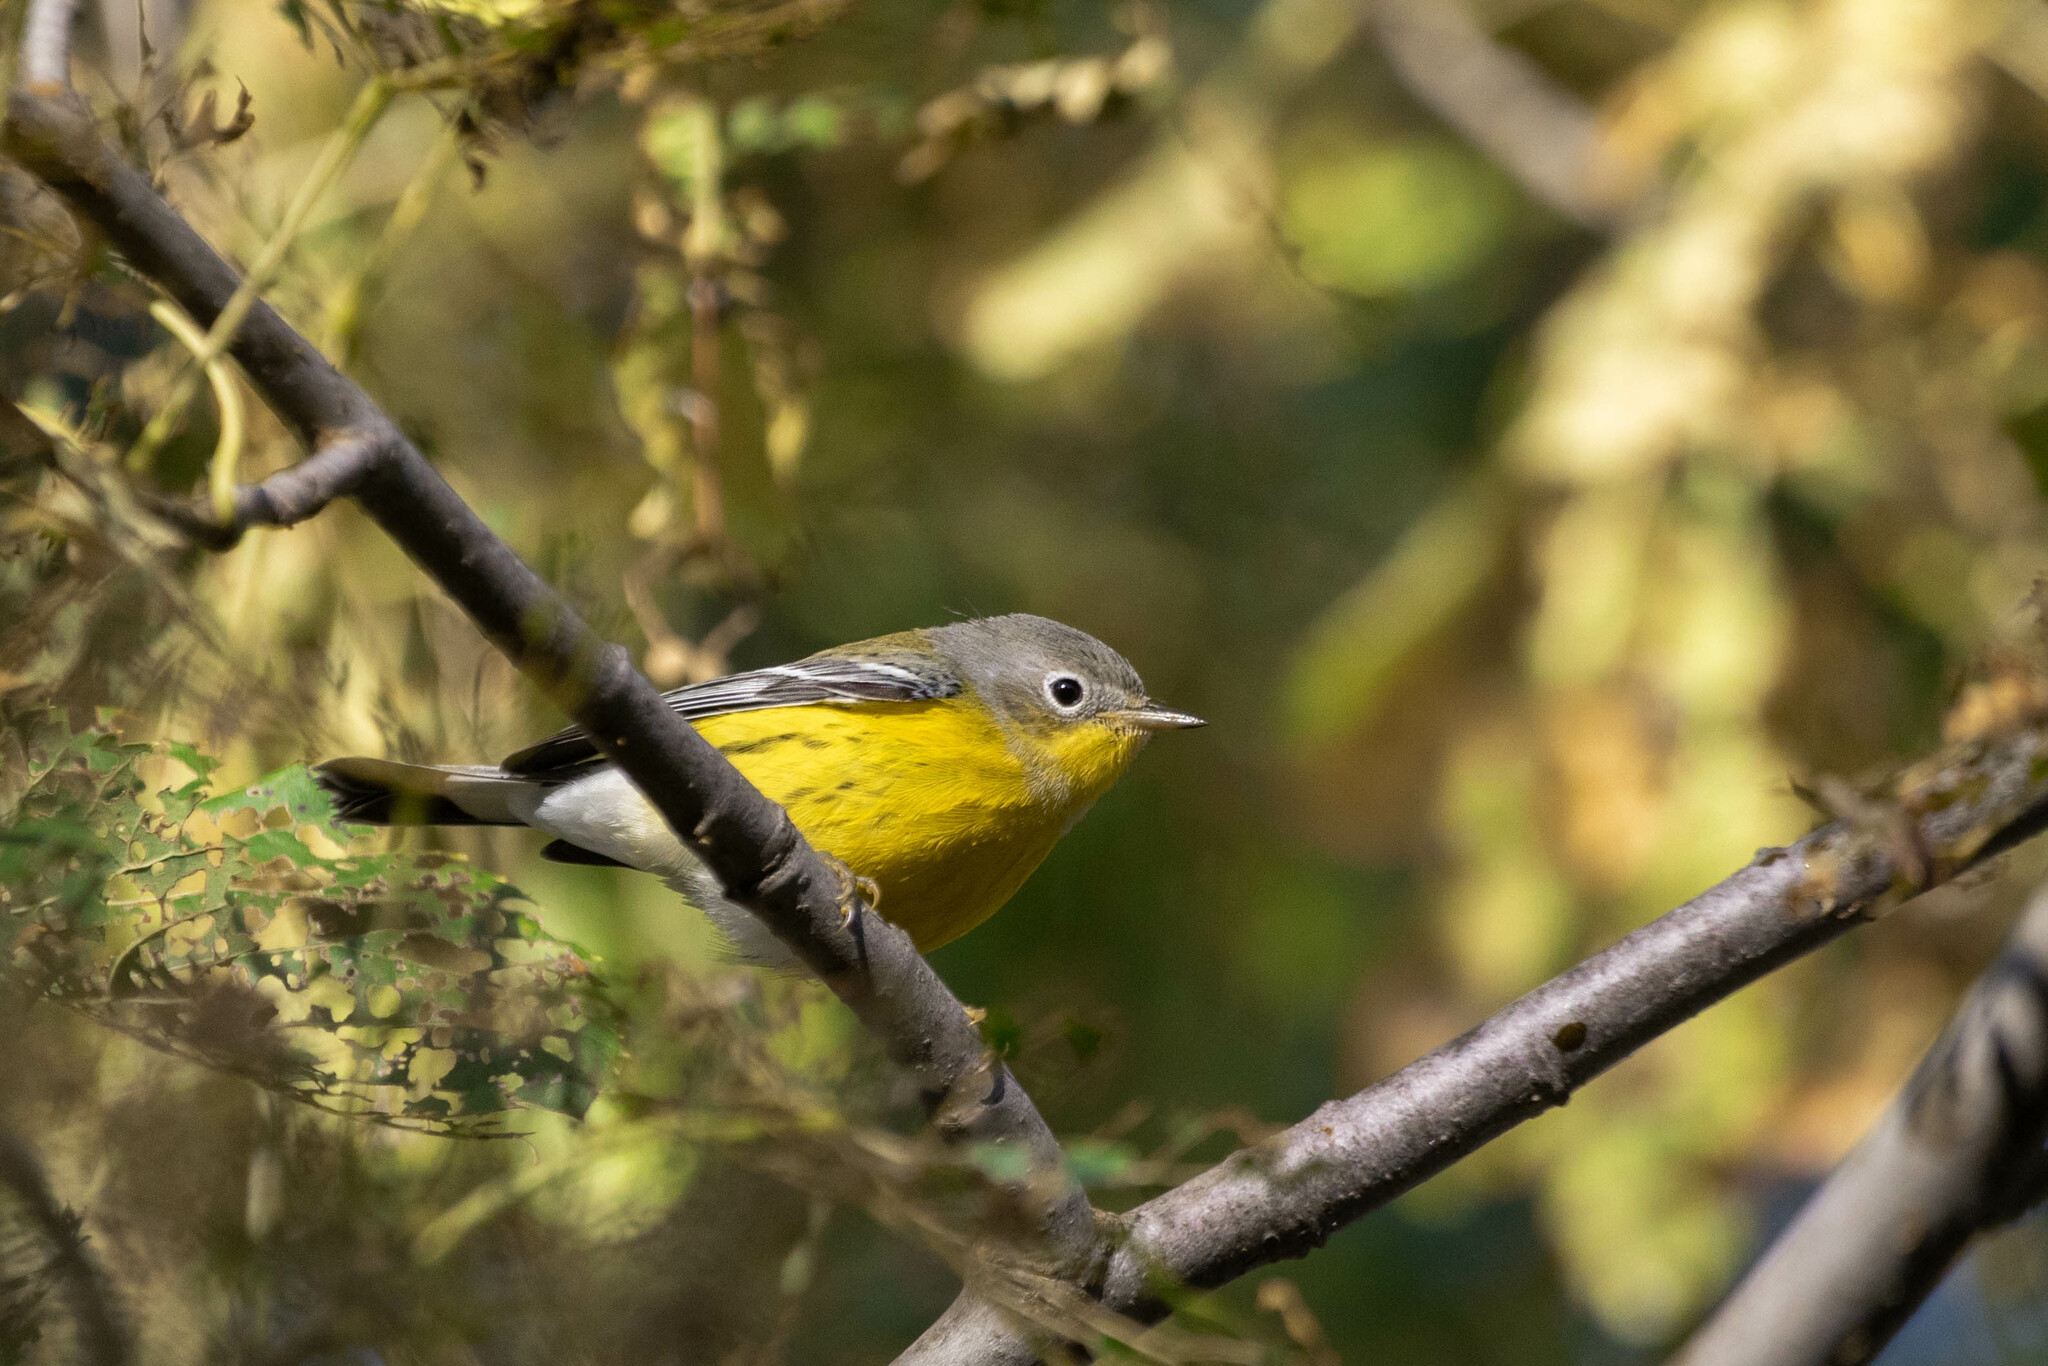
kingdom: Animalia
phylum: Chordata
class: Aves
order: Passeriformes
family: Parulidae
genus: Setophaga
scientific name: Setophaga magnolia
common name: Magnolia warbler
